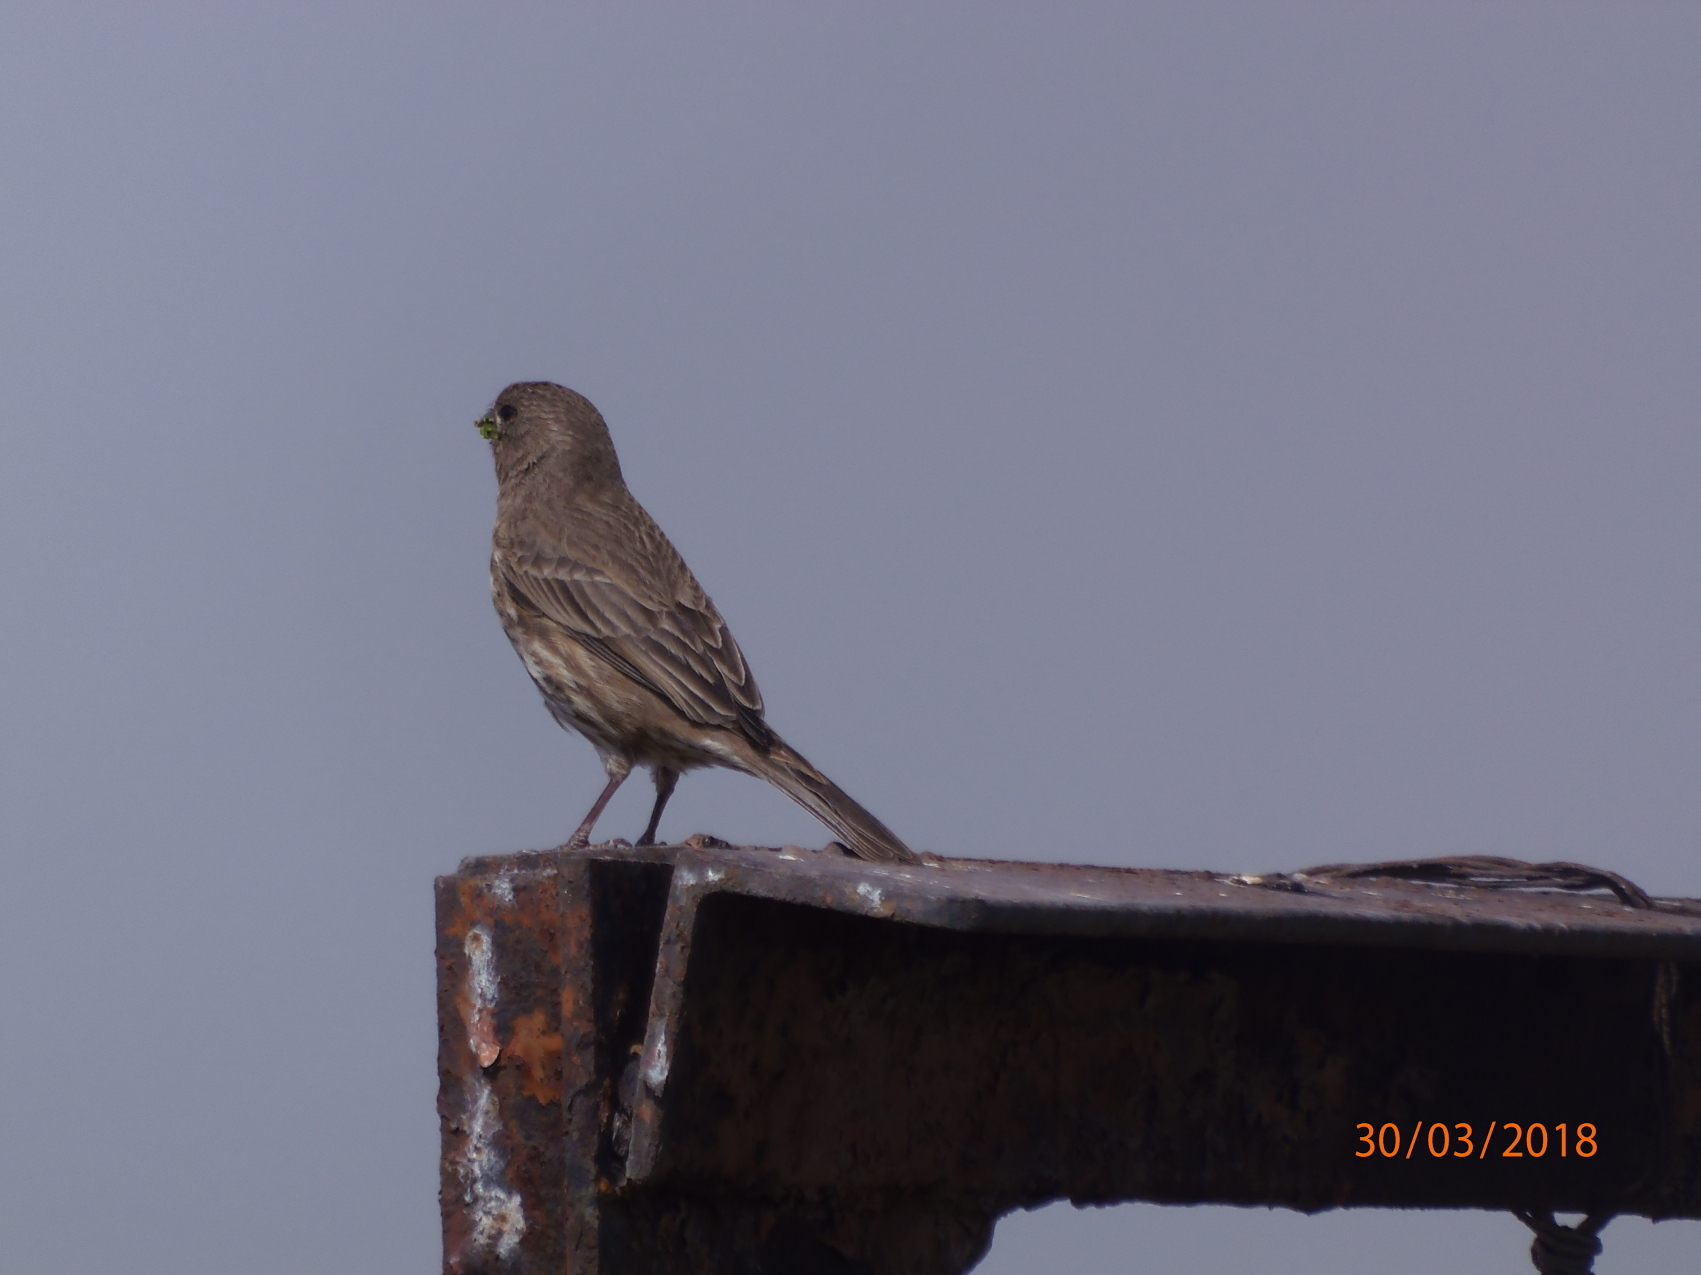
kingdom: Animalia
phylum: Chordata
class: Aves
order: Passeriformes
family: Fringillidae
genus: Haemorhous
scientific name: Haemorhous mexicanus
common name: House finch
